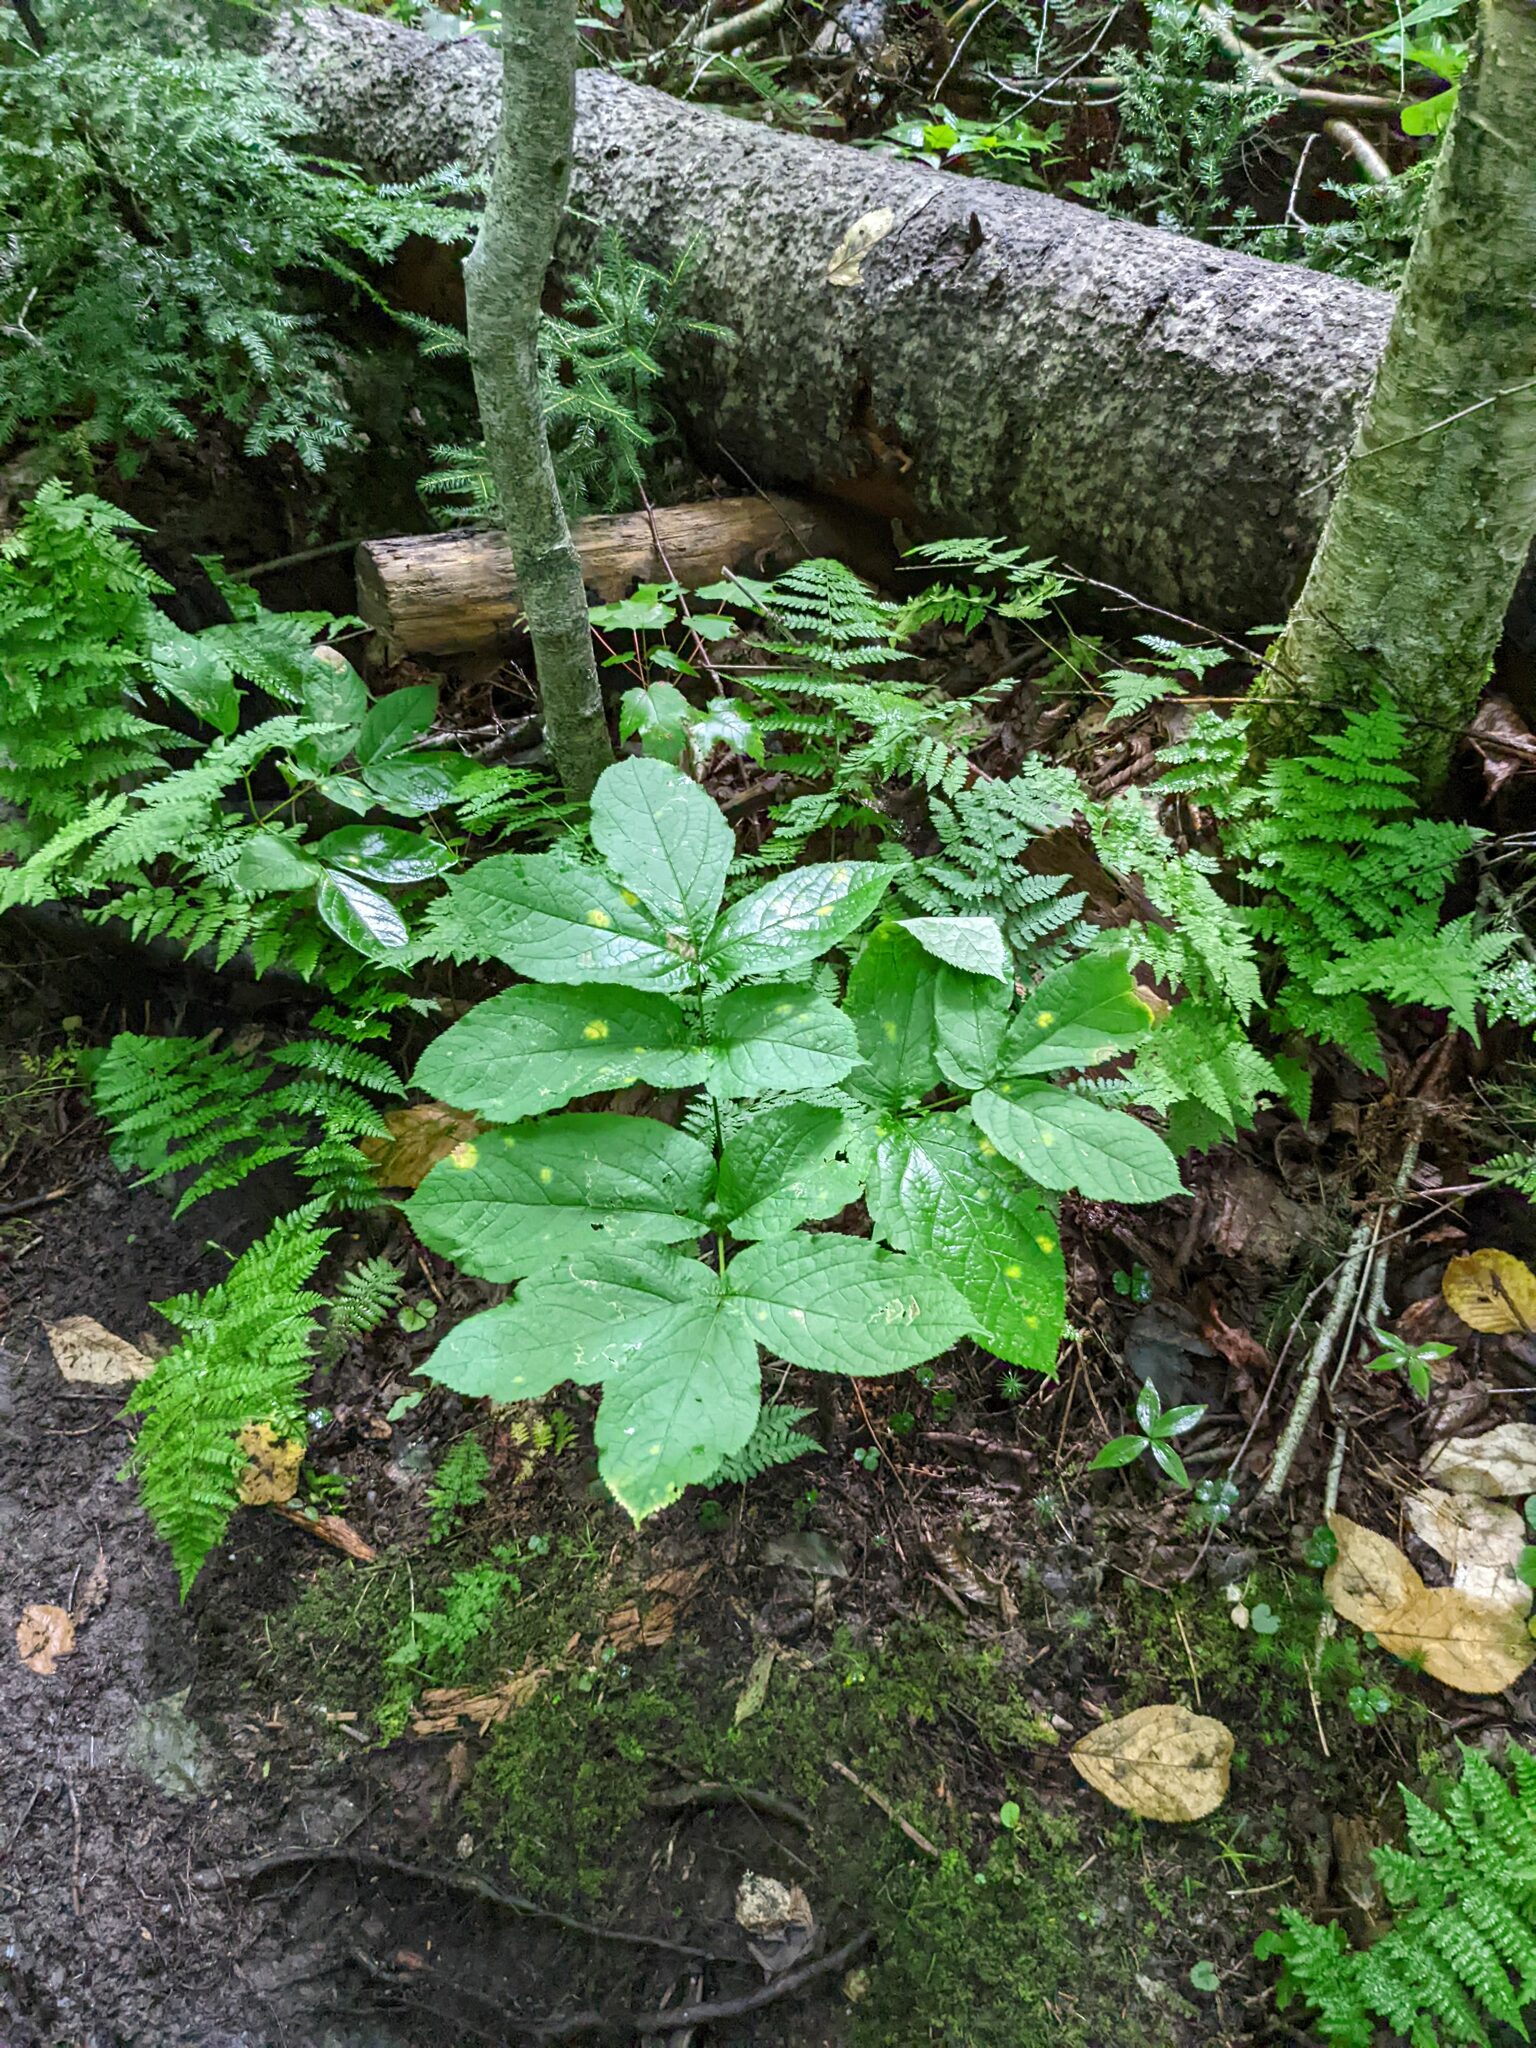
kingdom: Plantae
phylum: Tracheophyta
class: Magnoliopsida
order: Apiales
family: Araliaceae
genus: Aralia
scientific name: Aralia nudicaulis
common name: Wild sarsaparilla
